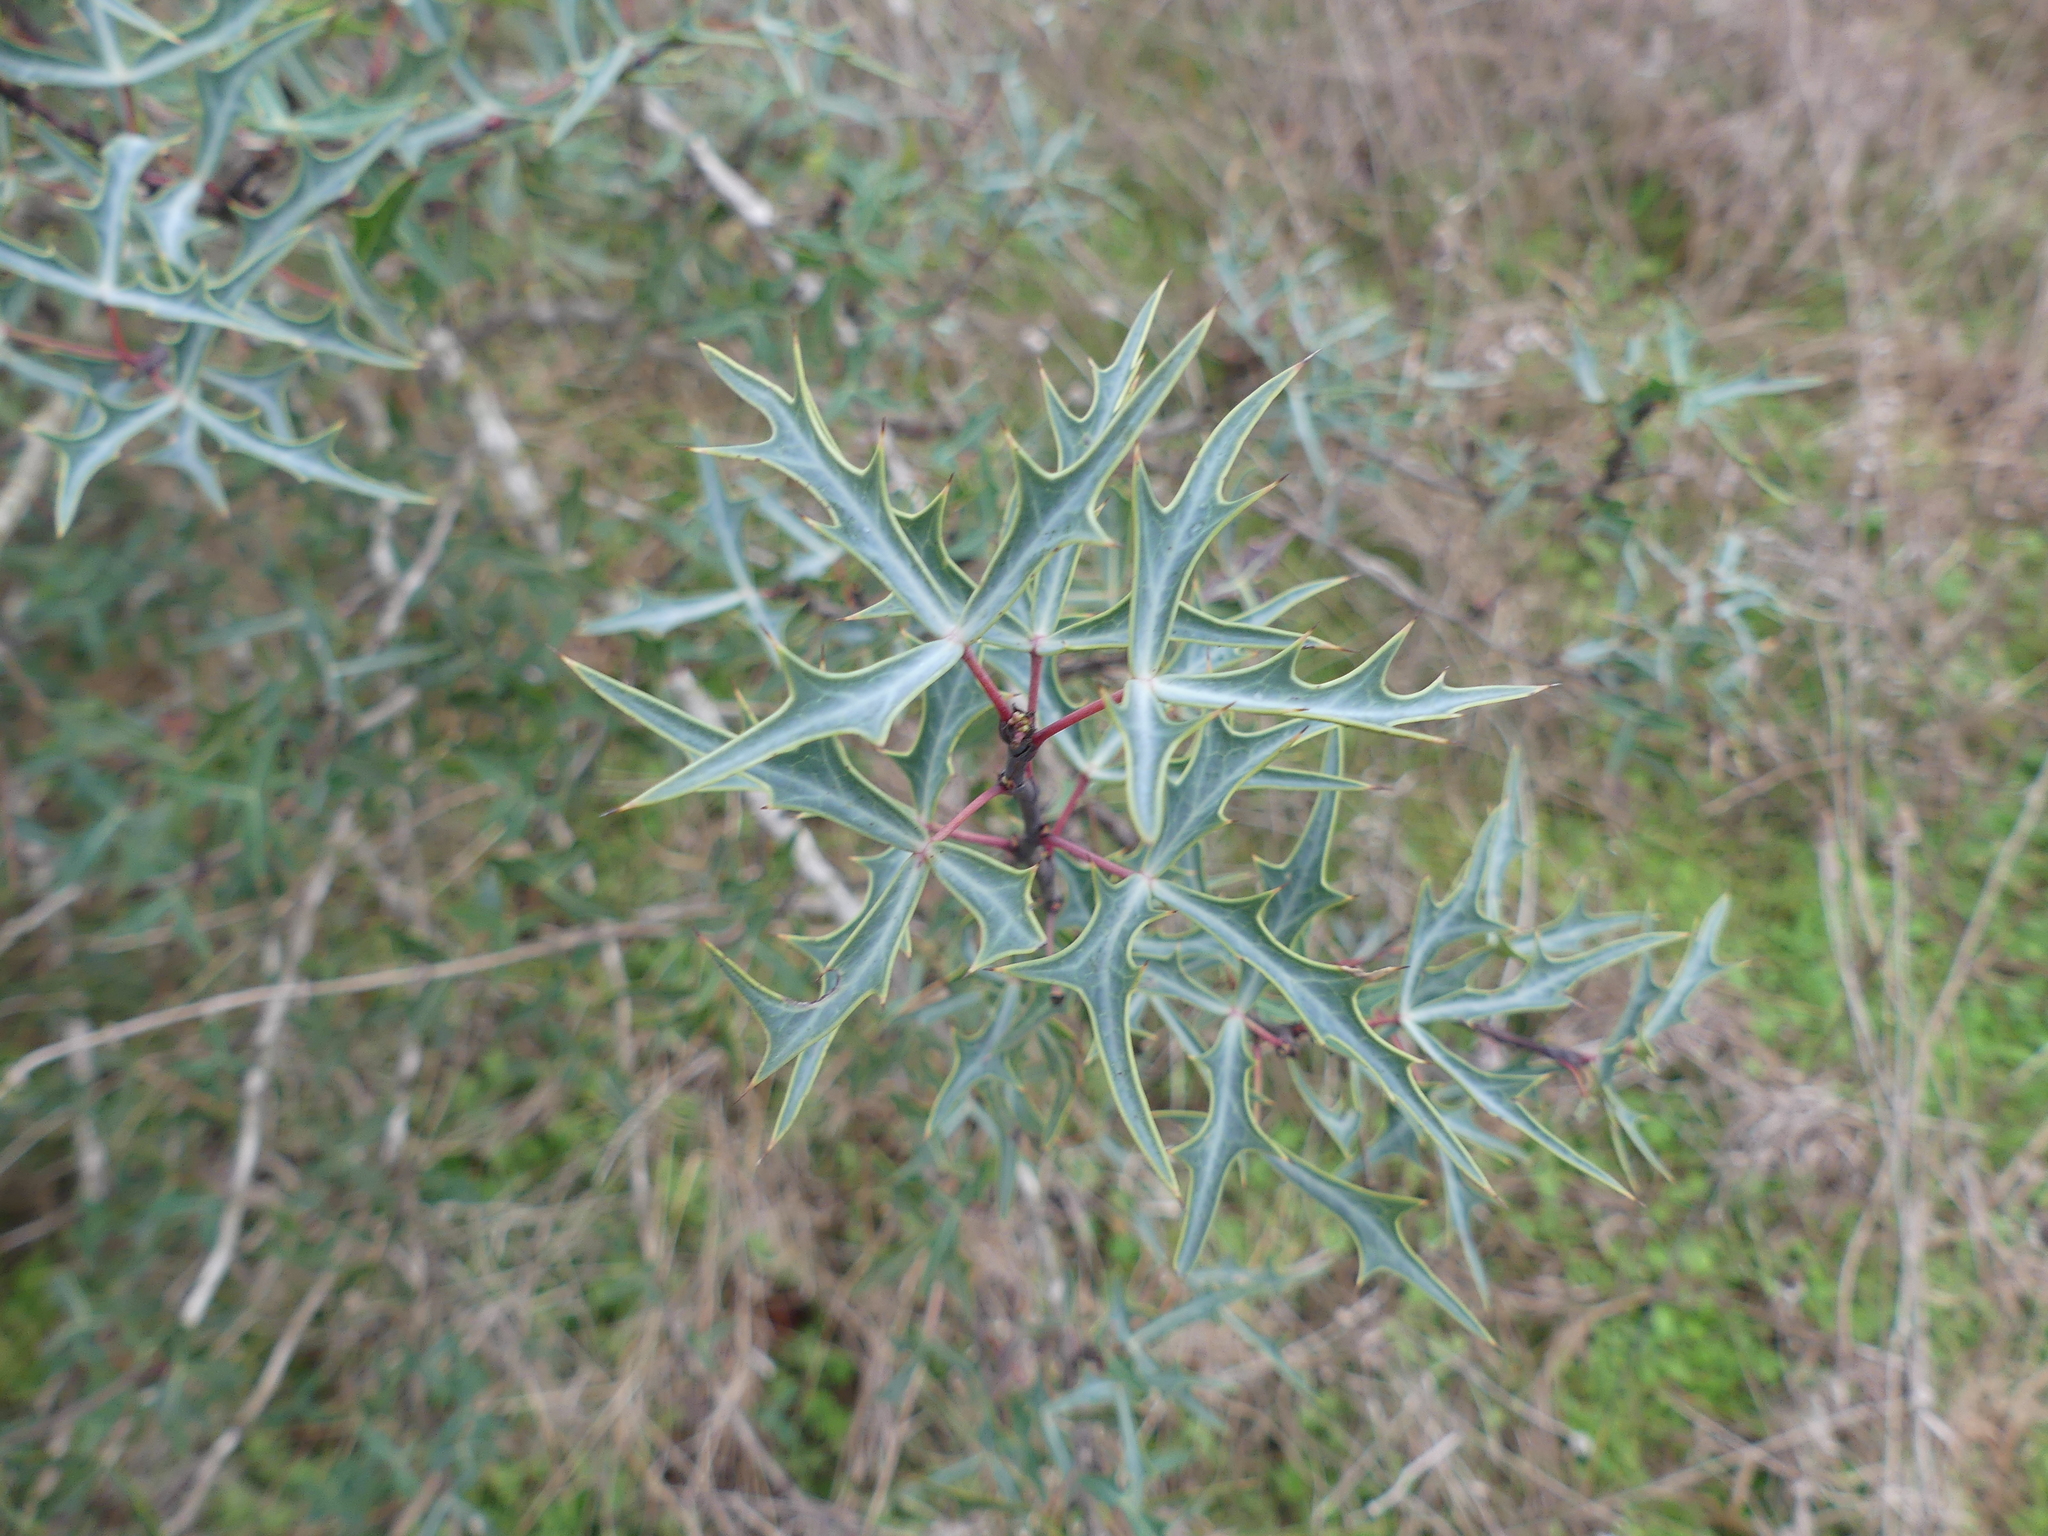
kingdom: Plantae
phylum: Tracheophyta
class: Magnoliopsida
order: Ranunculales
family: Berberidaceae
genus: Alloberberis
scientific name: Alloberberis trifoliolata
